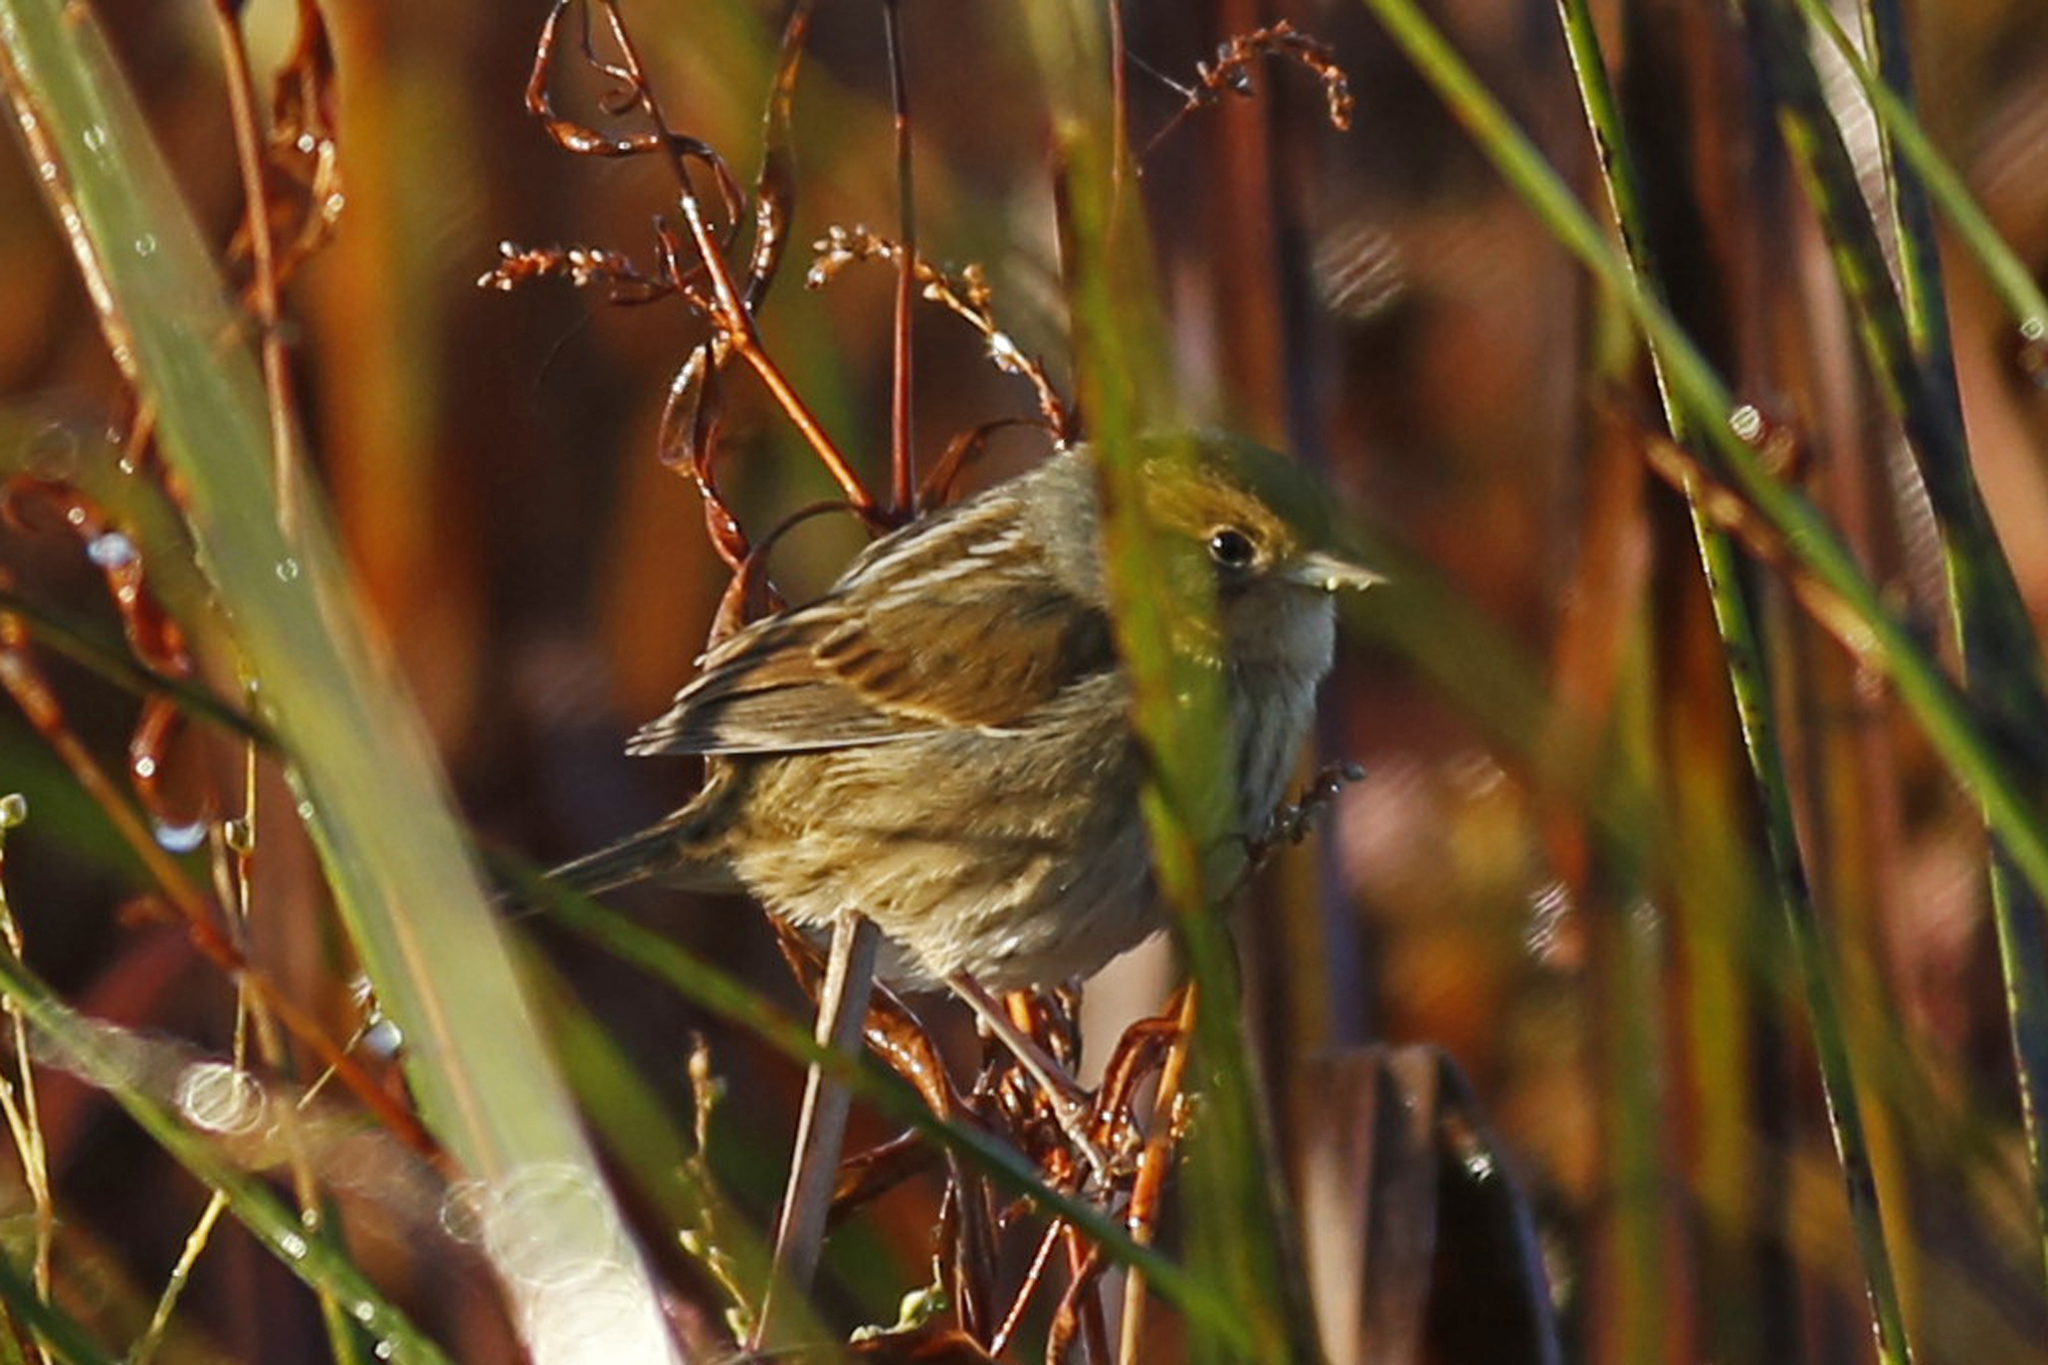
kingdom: Animalia
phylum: Chordata
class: Aves
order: Passeriformes
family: Passerellidae
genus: Ammospiza
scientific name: Ammospiza nelsoni
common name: Nelson's sparrow
